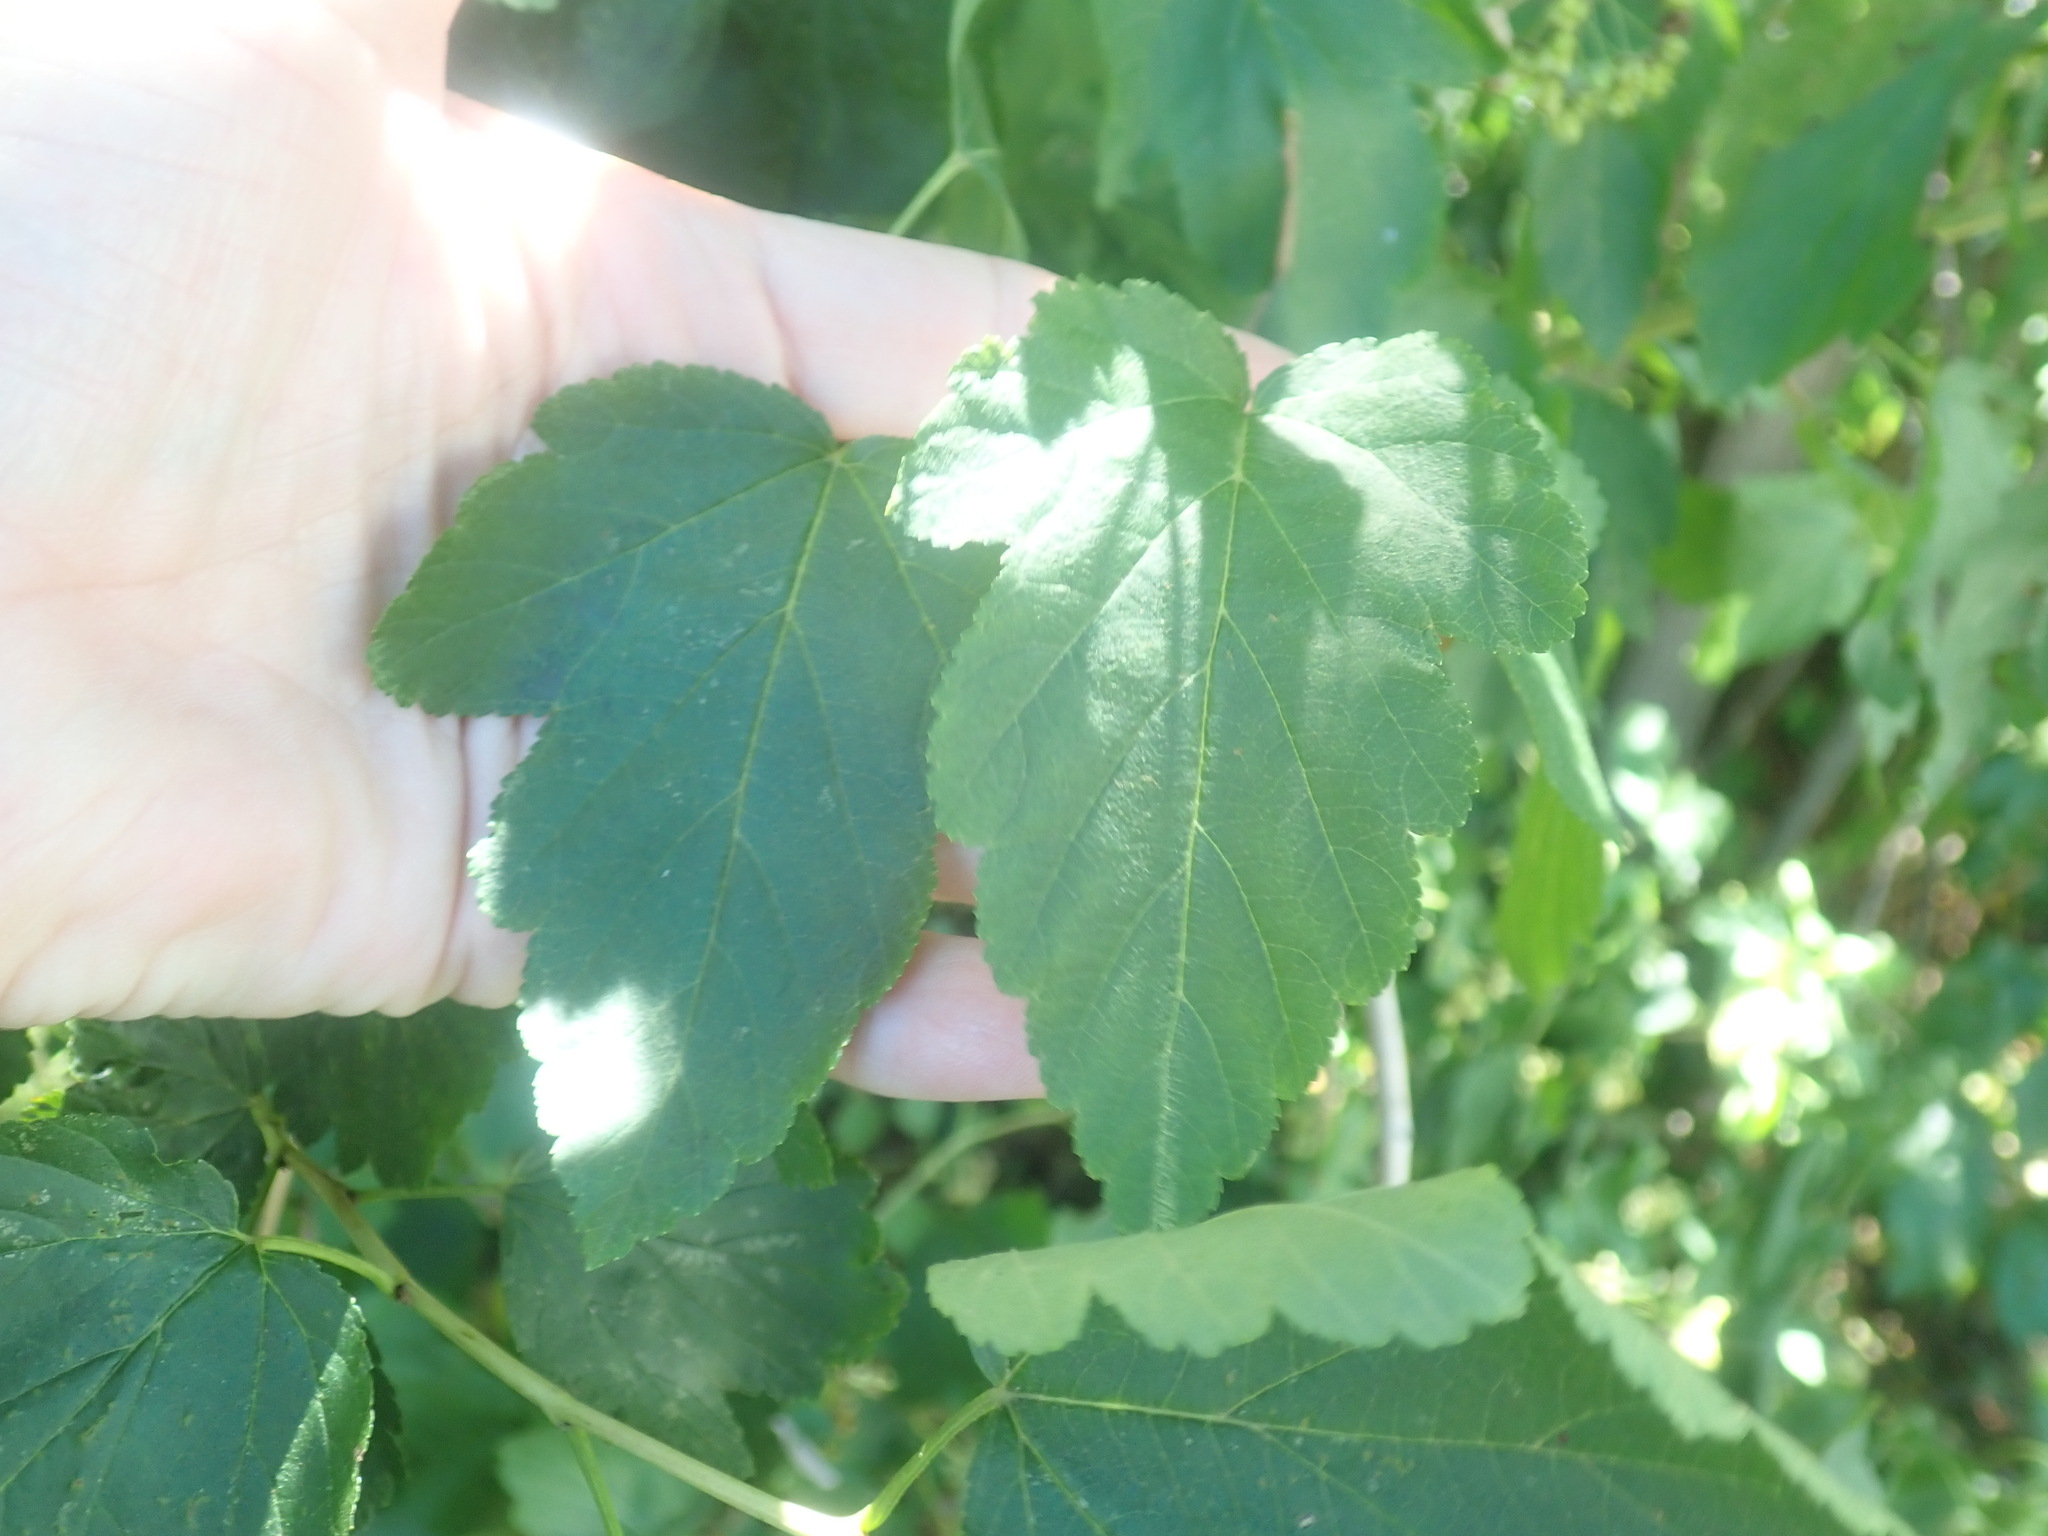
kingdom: Plantae
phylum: Tracheophyta
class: Magnoliopsida
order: Rosales
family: Rosaceae
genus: Physocarpus
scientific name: Physocarpus opulifolius
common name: Ninebark
